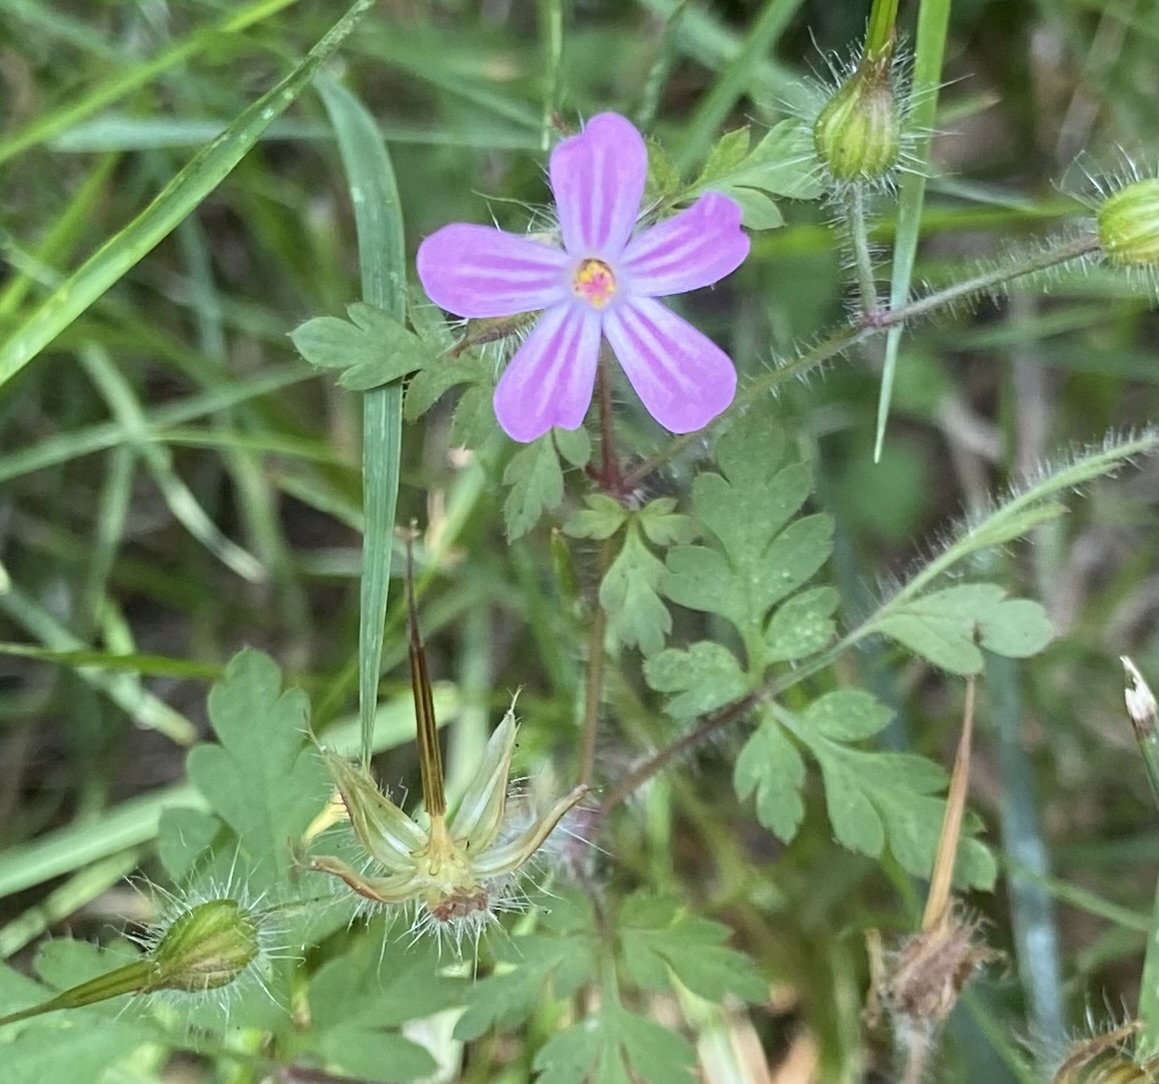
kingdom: Plantae
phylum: Tracheophyta
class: Magnoliopsida
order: Geraniales
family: Geraniaceae
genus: Geranium
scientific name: Geranium robertianum
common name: Herb-robert
